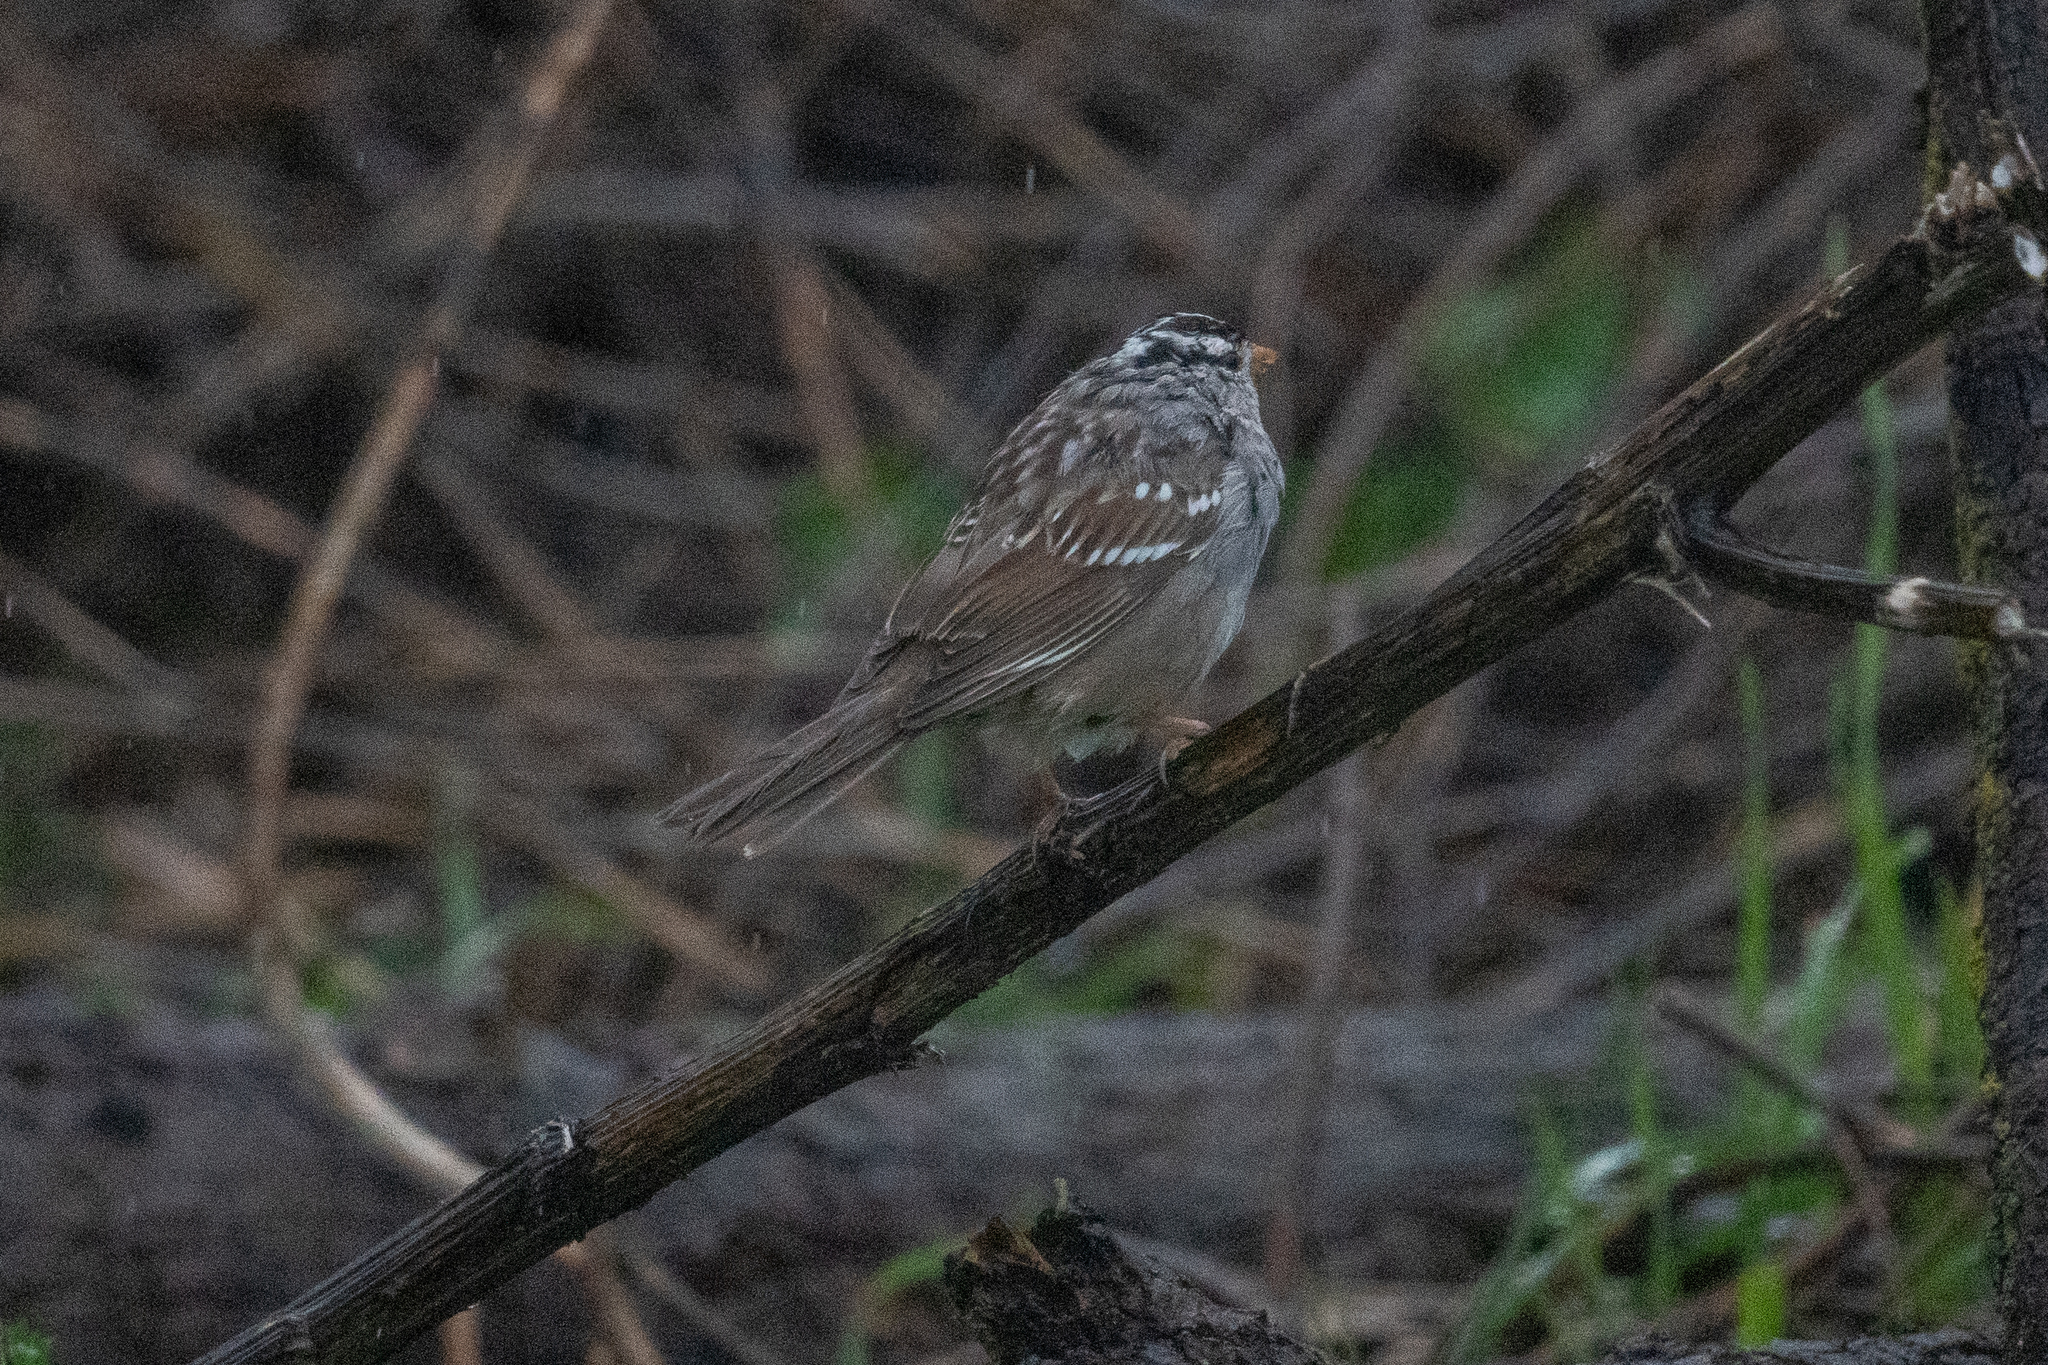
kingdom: Animalia
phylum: Chordata
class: Aves
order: Passeriformes
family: Passerellidae
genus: Zonotrichia
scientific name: Zonotrichia leucophrys
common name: White-crowned sparrow
